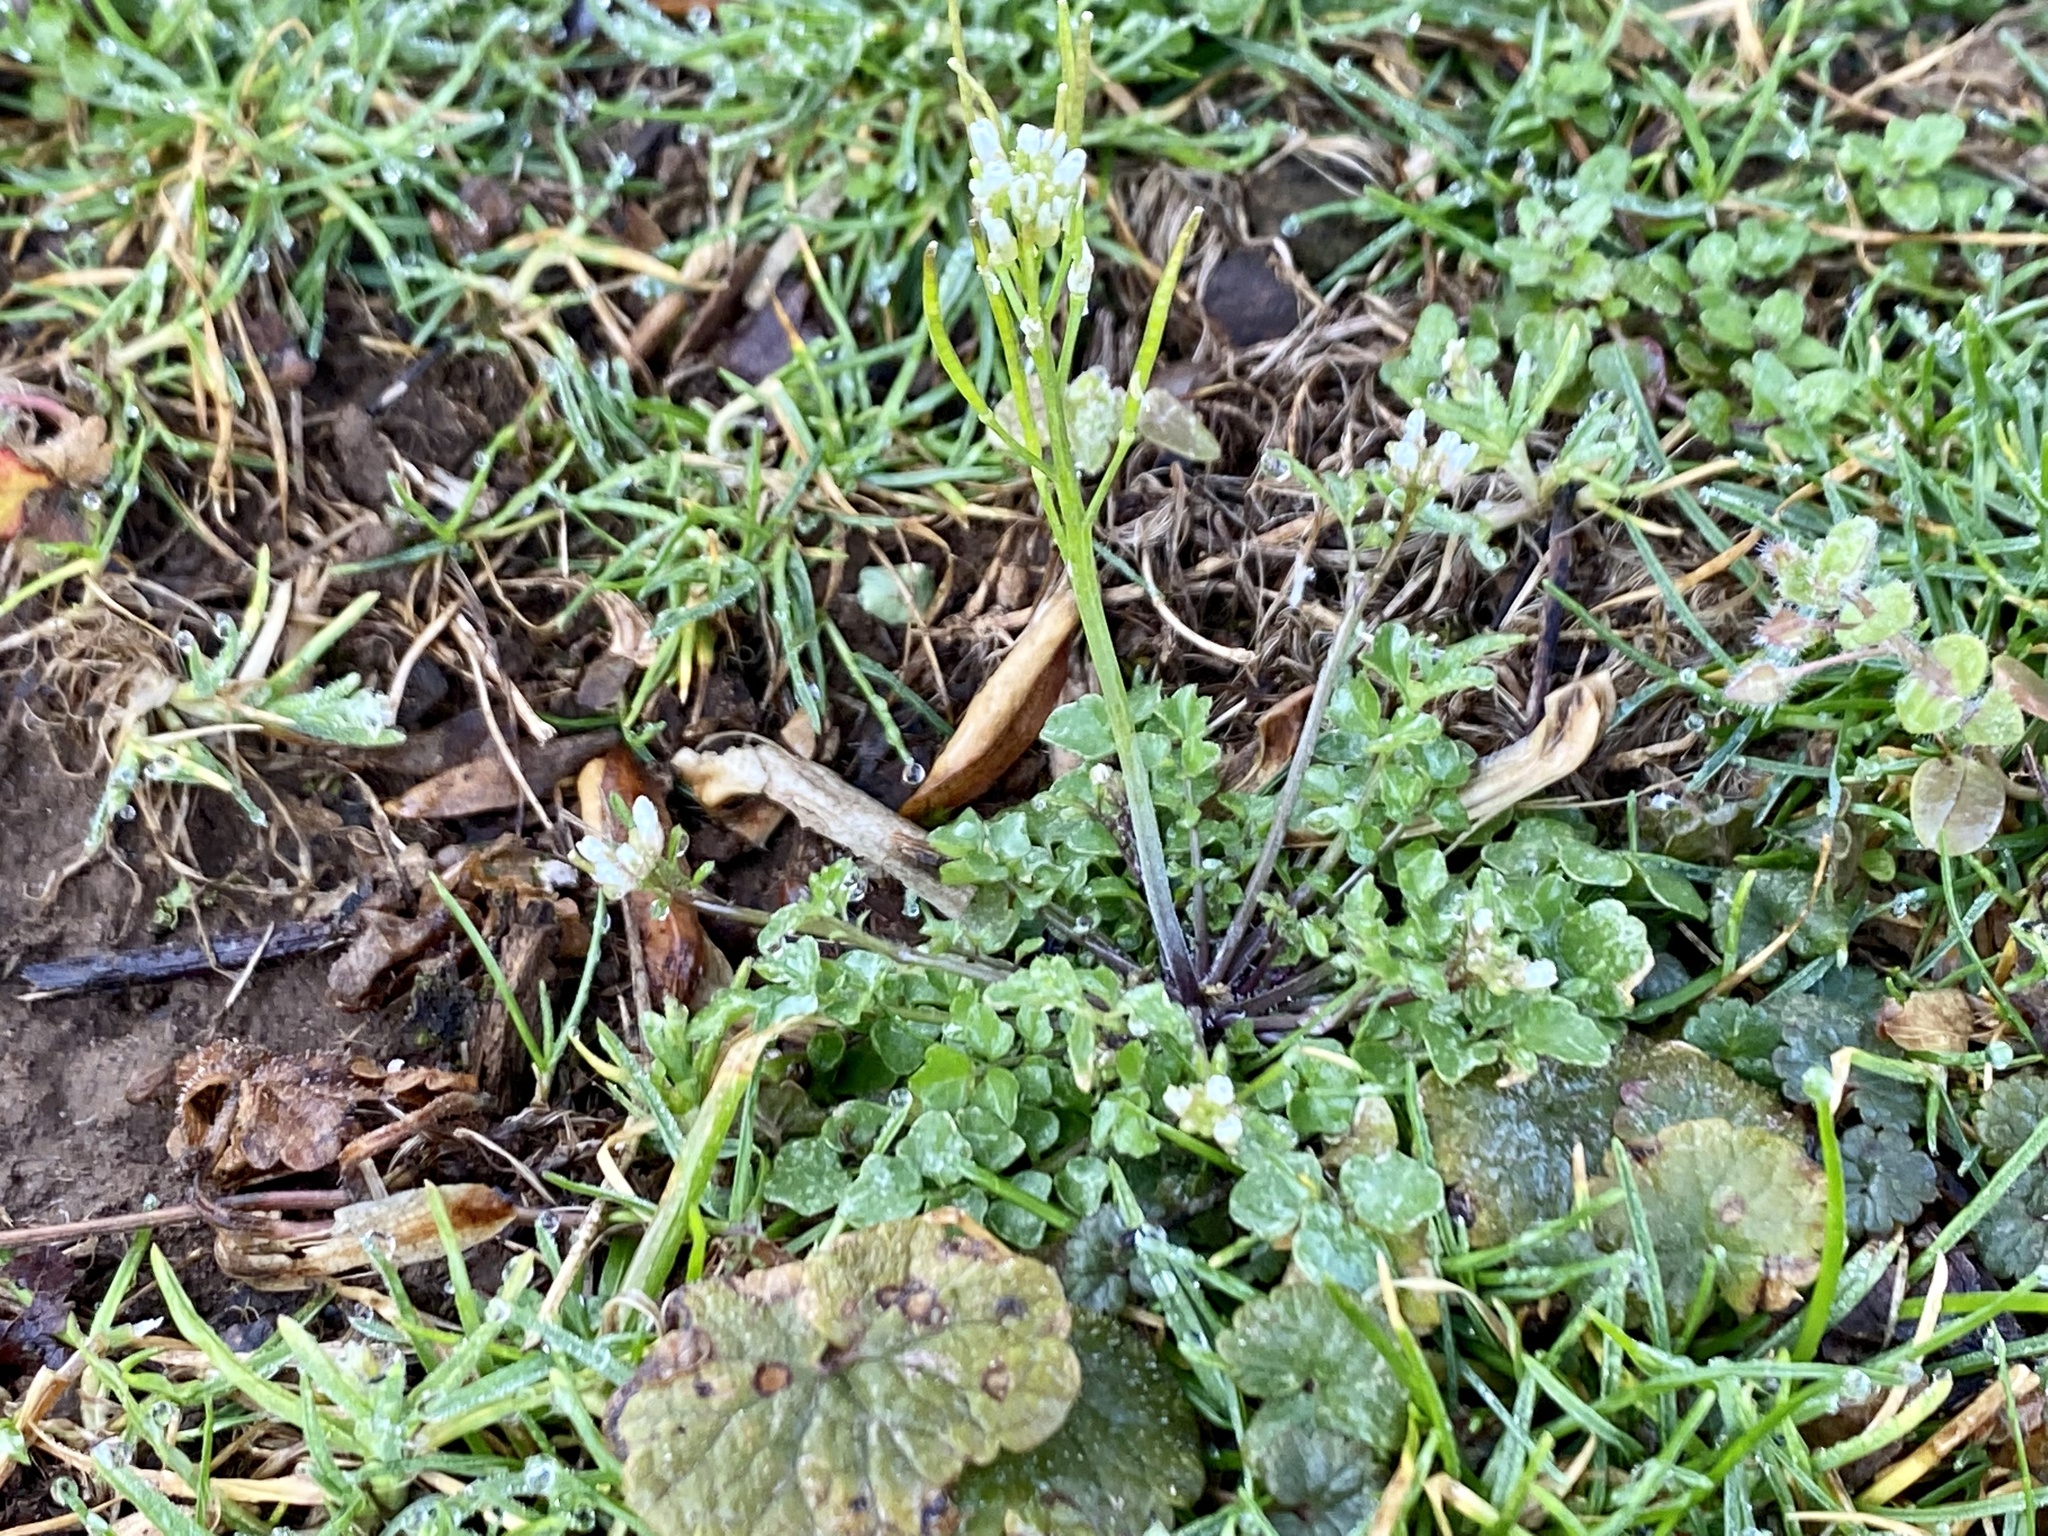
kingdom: Plantae
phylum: Tracheophyta
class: Magnoliopsida
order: Brassicales
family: Brassicaceae
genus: Cardamine
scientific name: Cardamine hirsuta
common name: Hairy bittercress
